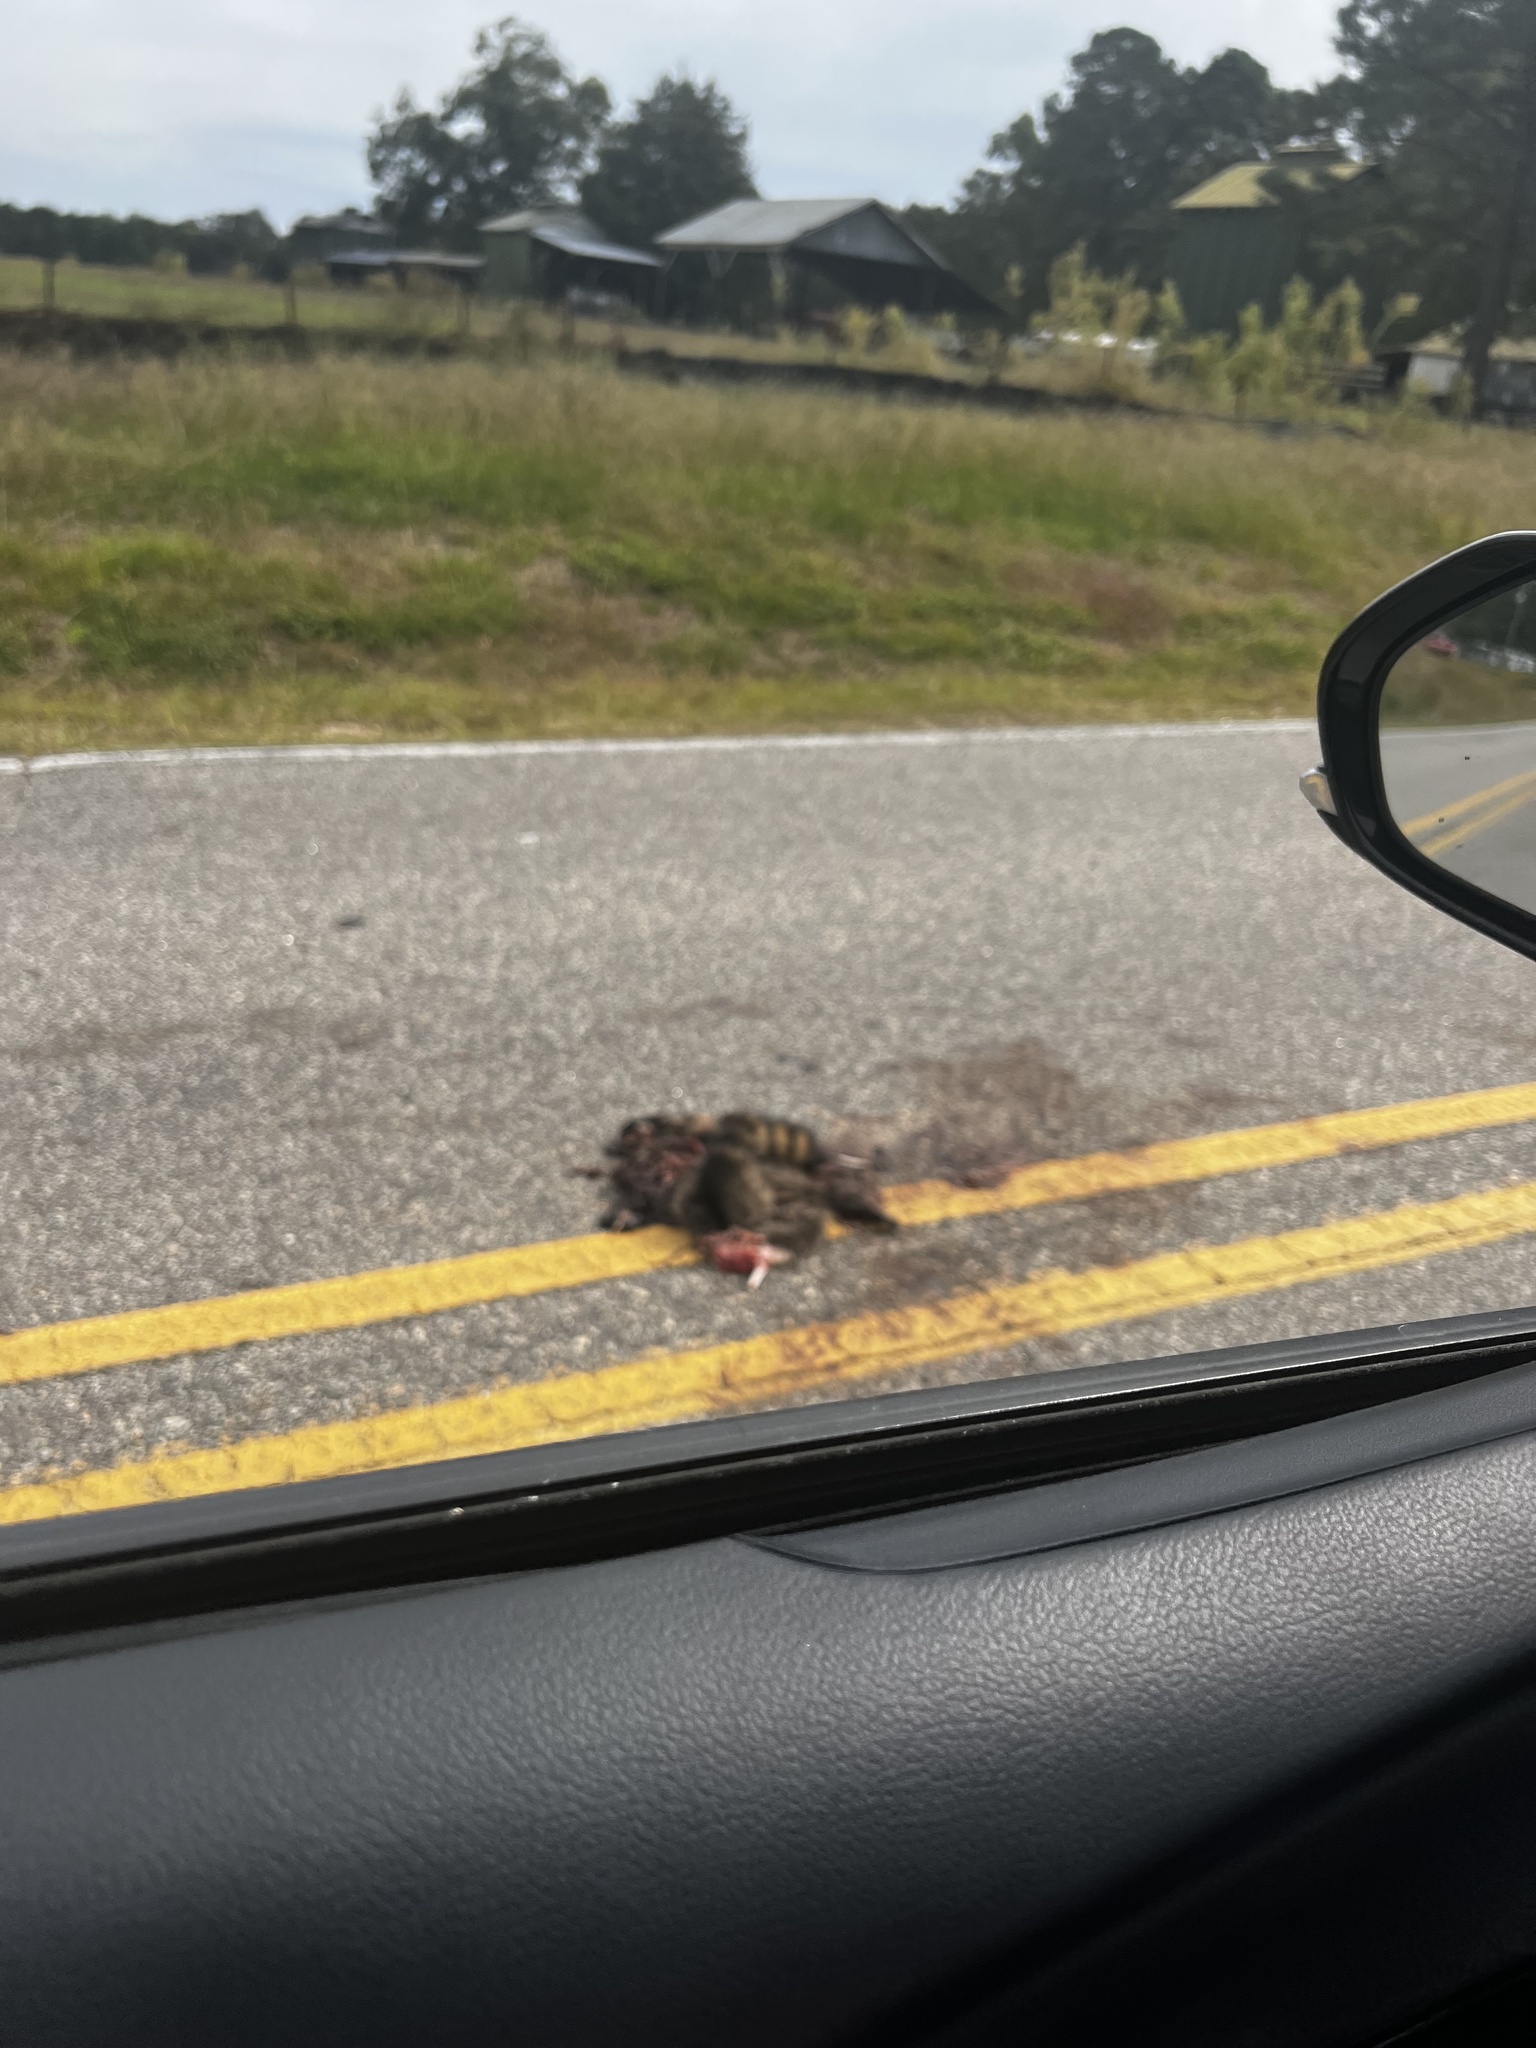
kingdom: Animalia
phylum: Chordata
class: Mammalia
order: Carnivora
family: Procyonidae
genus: Procyon
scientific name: Procyon lotor
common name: Raccoon
